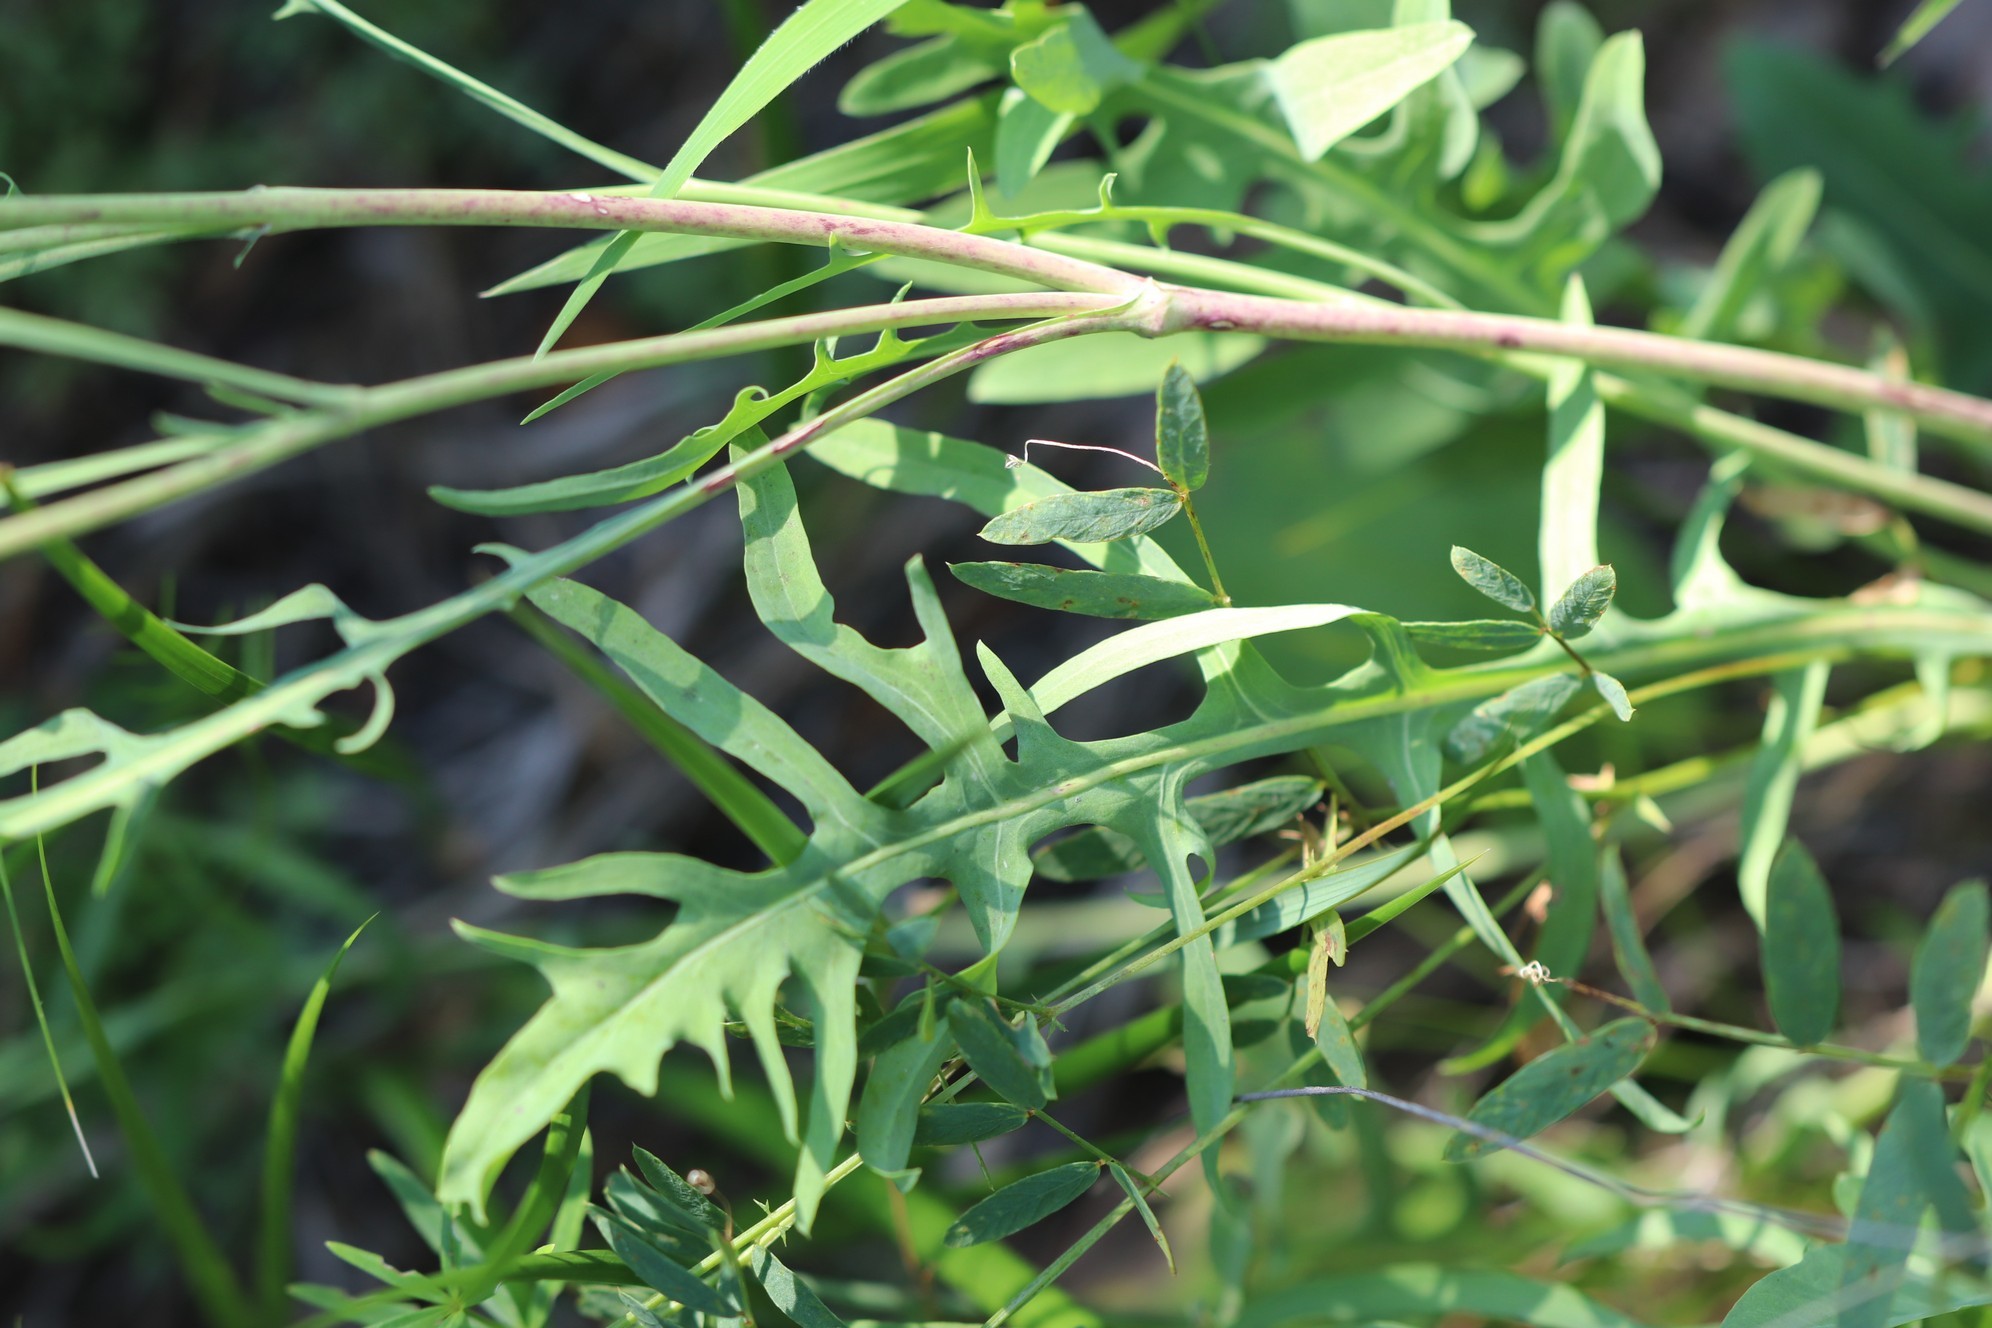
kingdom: Plantae
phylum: Tracheophyta
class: Magnoliopsida
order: Asterales
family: Asteraceae
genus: Crepidiastrum
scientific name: Crepidiastrum tenuifolium
